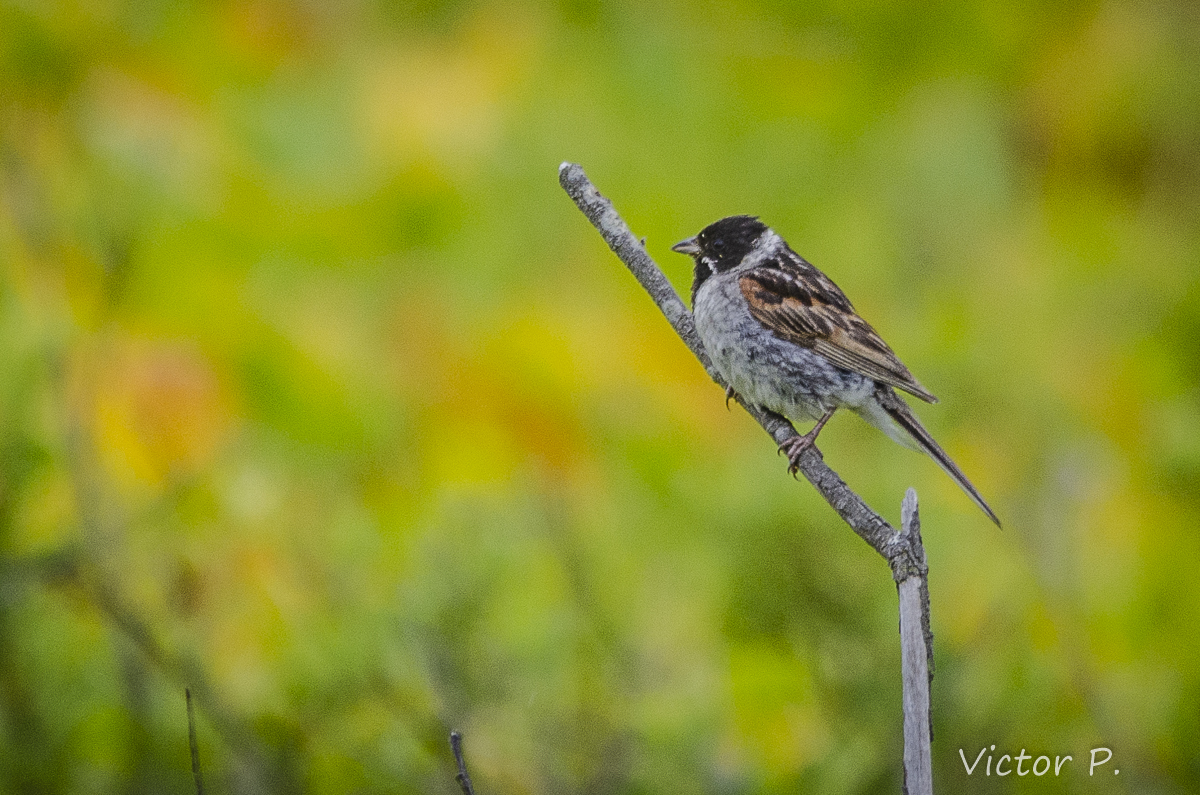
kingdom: Animalia
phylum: Chordata
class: Aves
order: Passeriformes
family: Emberizidae
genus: Emberiza
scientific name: Emberiza schoeniclus
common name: Reed bunting
